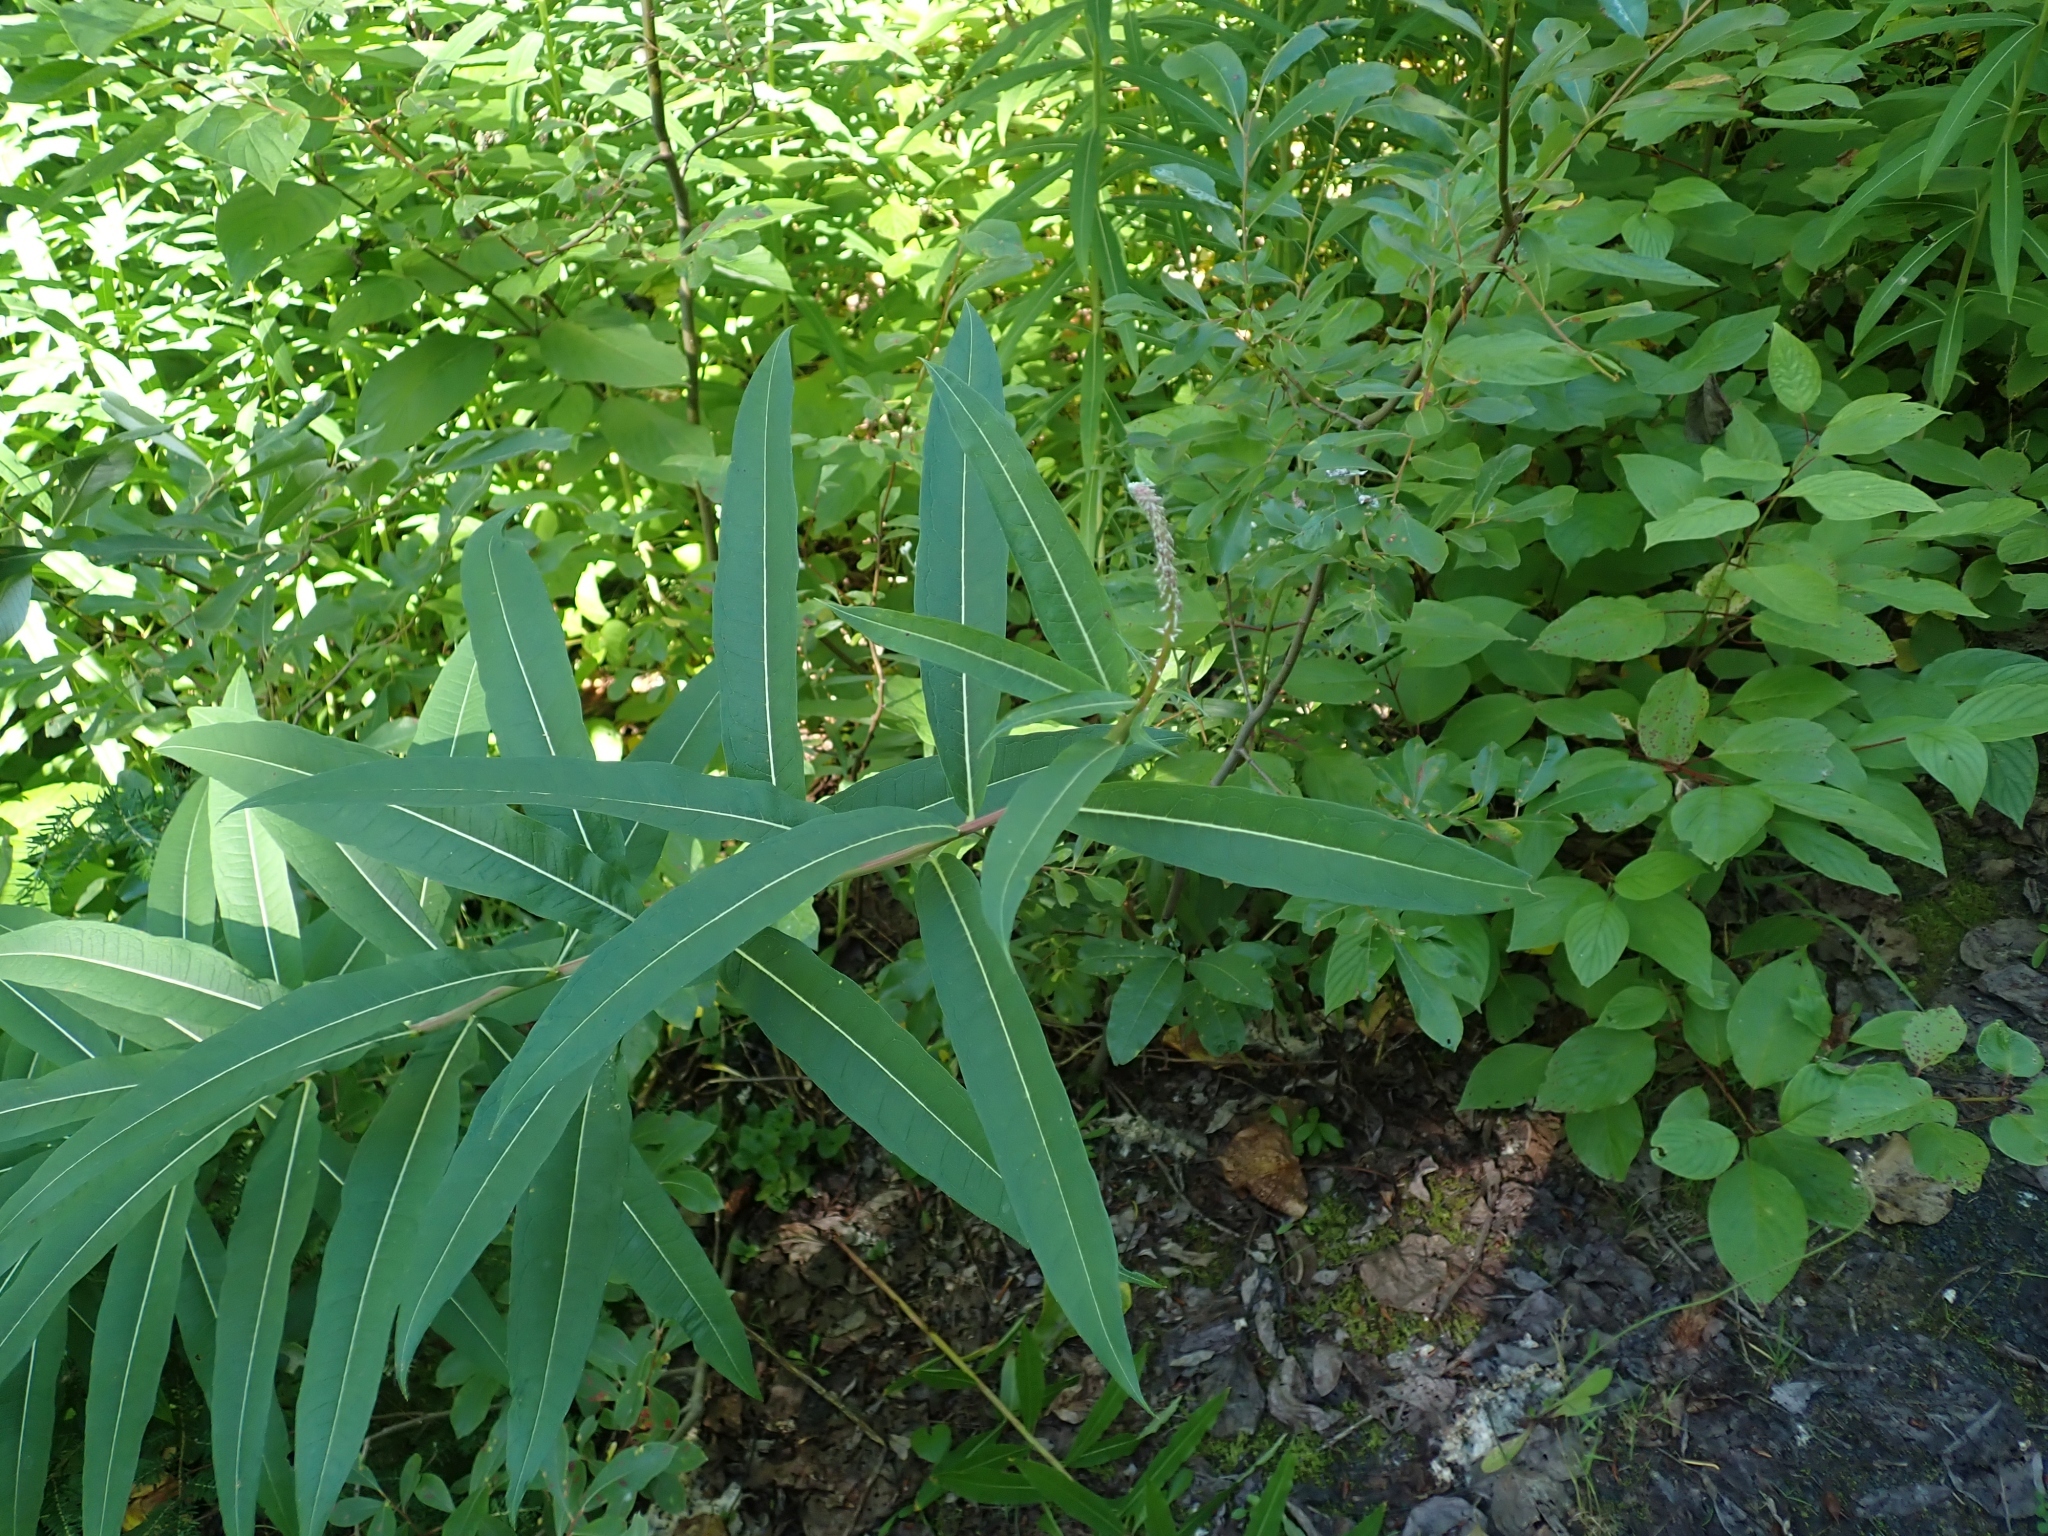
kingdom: Plantae
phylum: Tracheophyta
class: Magnoliopsida
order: Myrtales
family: Onagraceae
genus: Chamaenerion
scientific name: Chamaenerion angustifolium
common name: Fireweed
